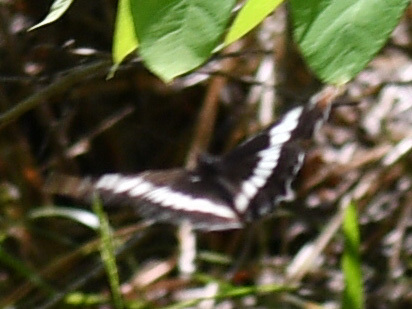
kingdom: Animalia
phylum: Arthropoda
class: Insecta
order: Lepidoptera
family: Nymphalidae
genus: Limenitis
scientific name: Limenitis lorquini
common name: Lorquin's admiral
